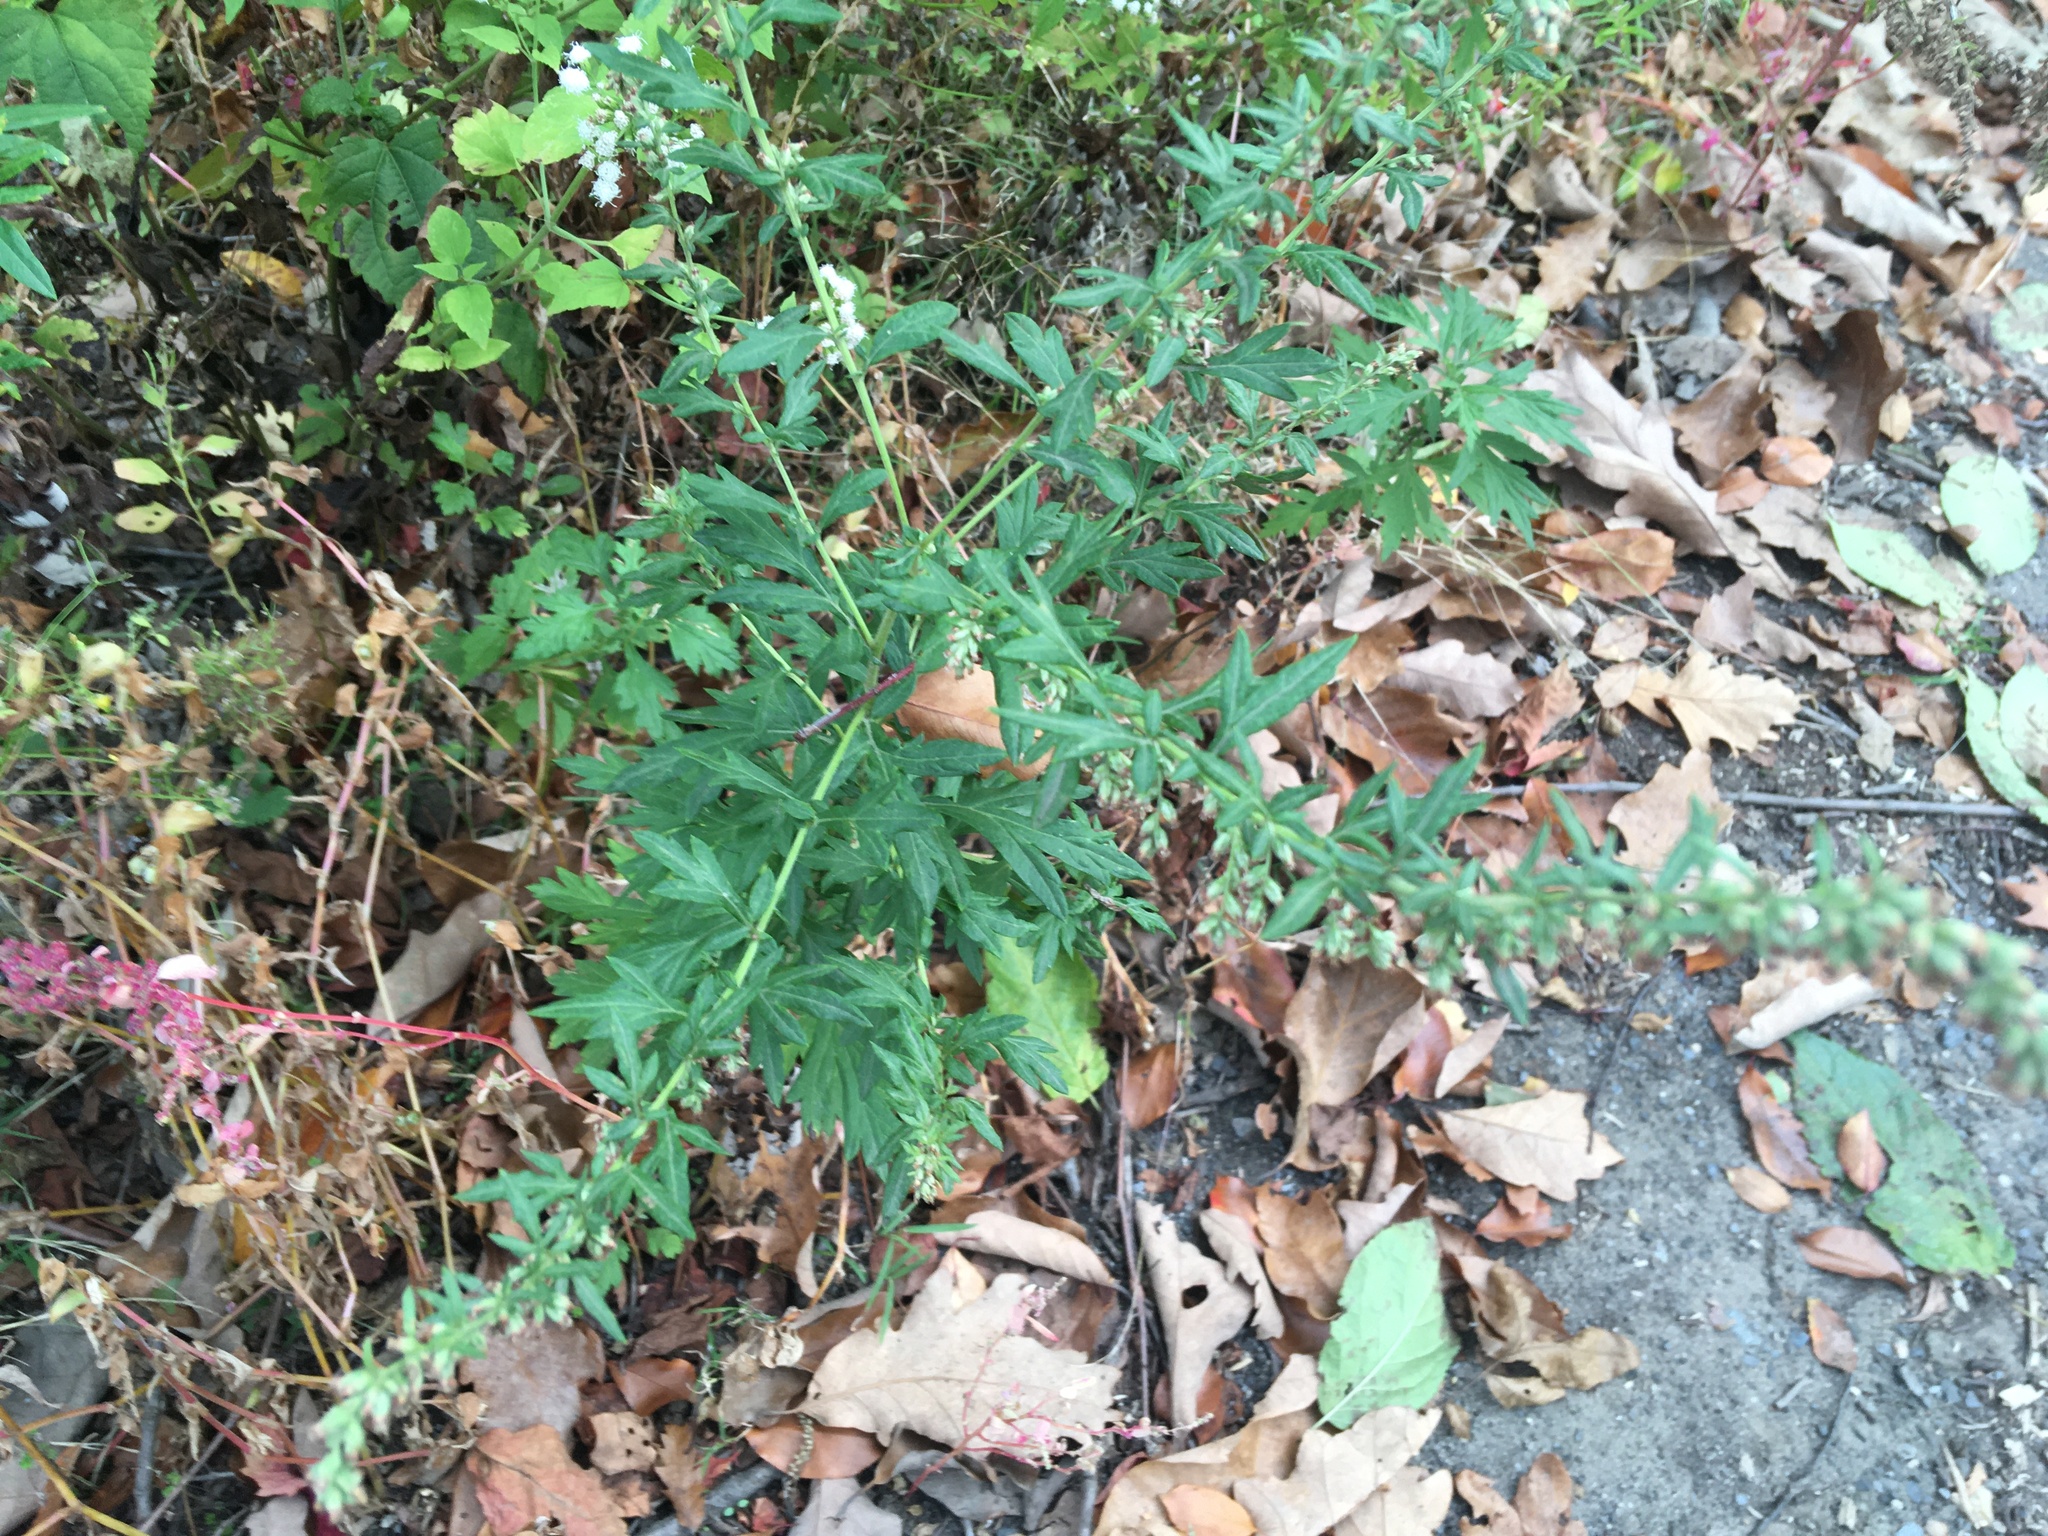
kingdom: Plantae
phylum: Tracheophyta
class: Magnoliopsida
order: Asterales
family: Asteraceae
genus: Artemisia
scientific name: Artemisia vulgaris
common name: Mugwort
